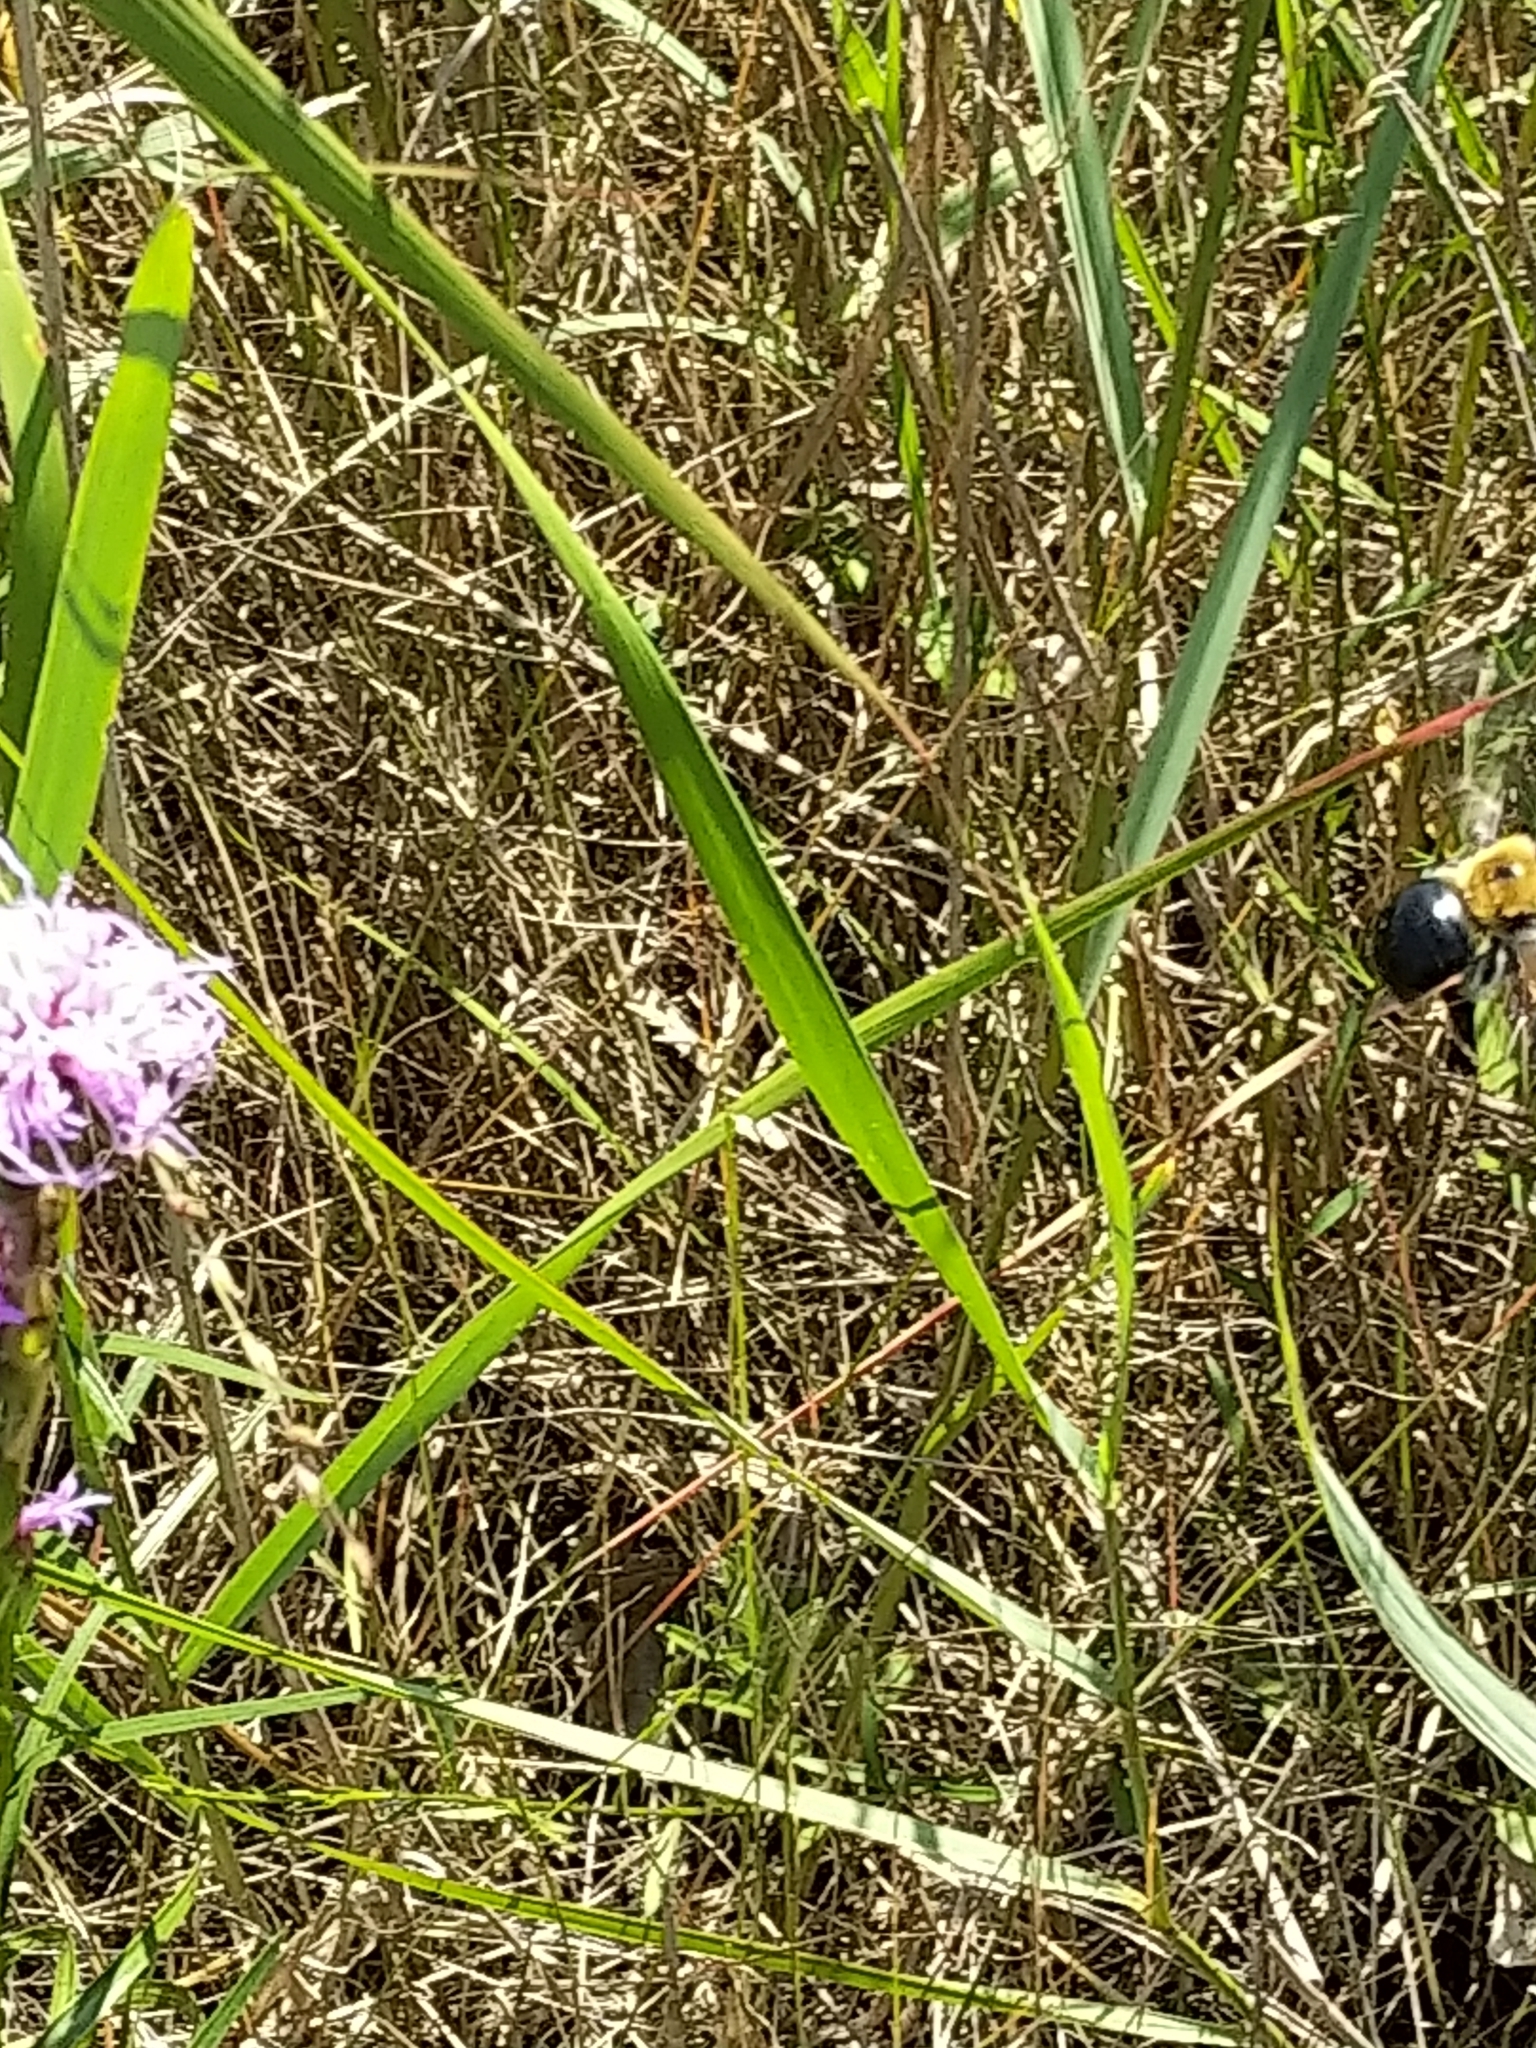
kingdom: Animalia
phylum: Arthropoda
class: Insecta
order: Hymenoptera
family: Apidae
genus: Xylocopa
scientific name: Xylocopa virginica
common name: Carpenter bee
